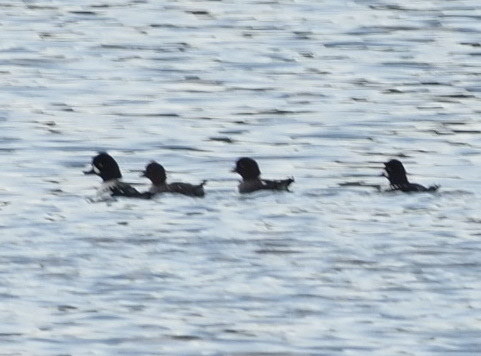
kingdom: Animalia
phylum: Chordata
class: Aves
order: Anseriformes
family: Anatidae
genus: Bucephala
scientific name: Bucephala islandica
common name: Barrow's goldeneye
